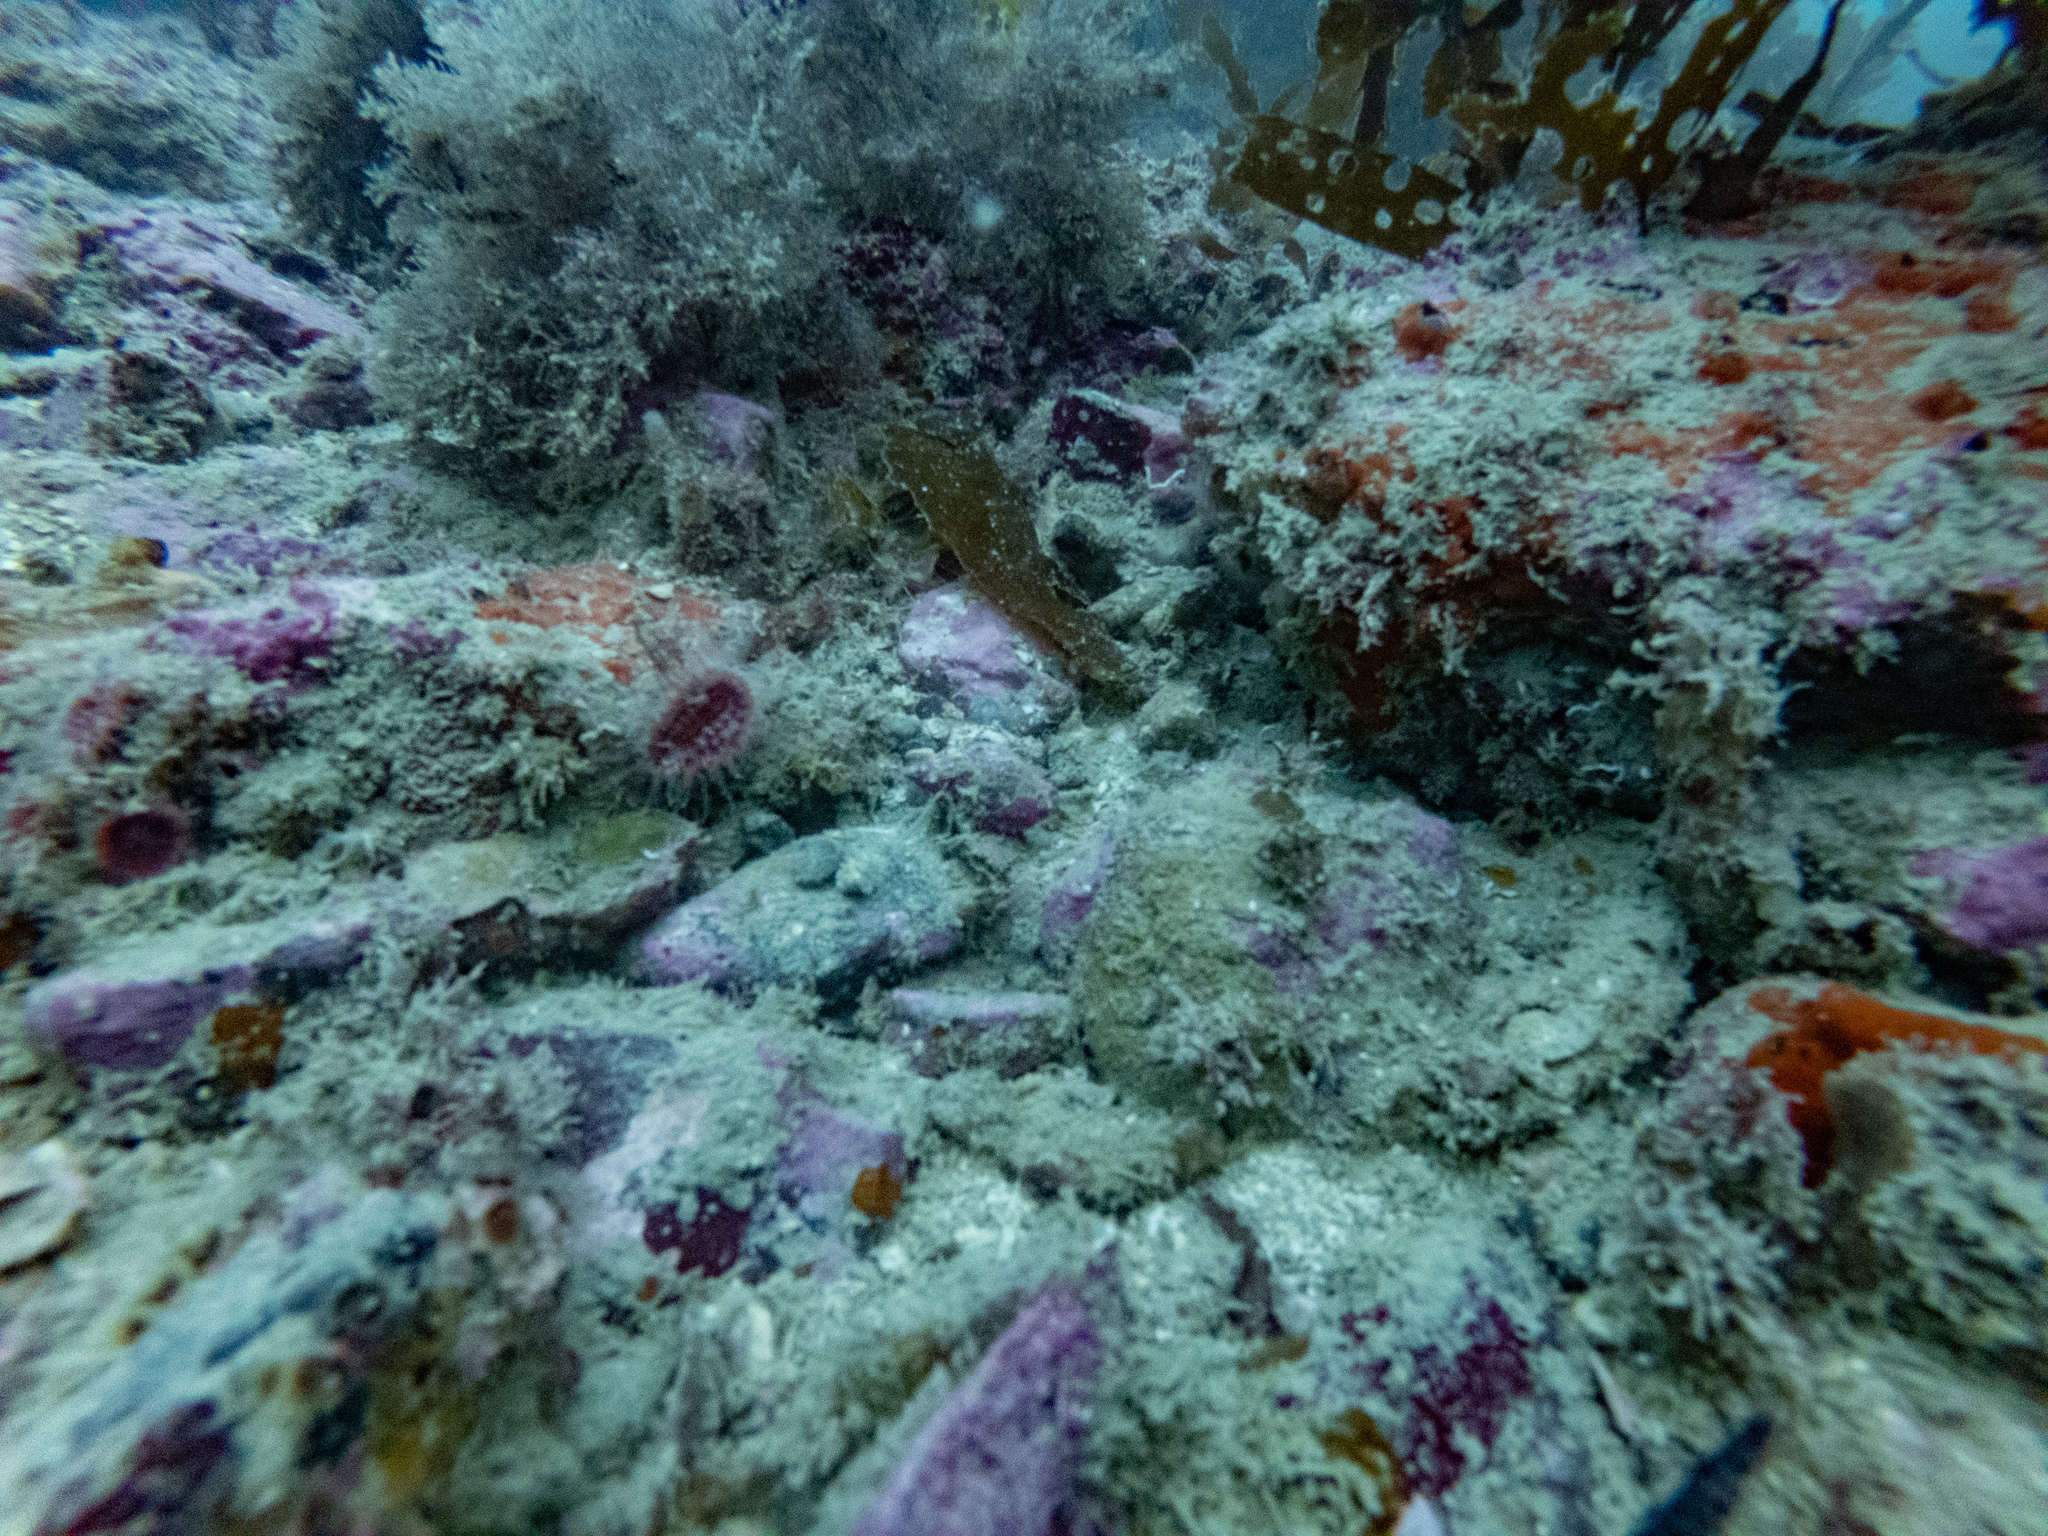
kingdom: Animalia
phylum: Cnidaria
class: Anthozoa
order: Scleractinia
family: Flabellidae
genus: Monomyces
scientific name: Monomyces rubrum
